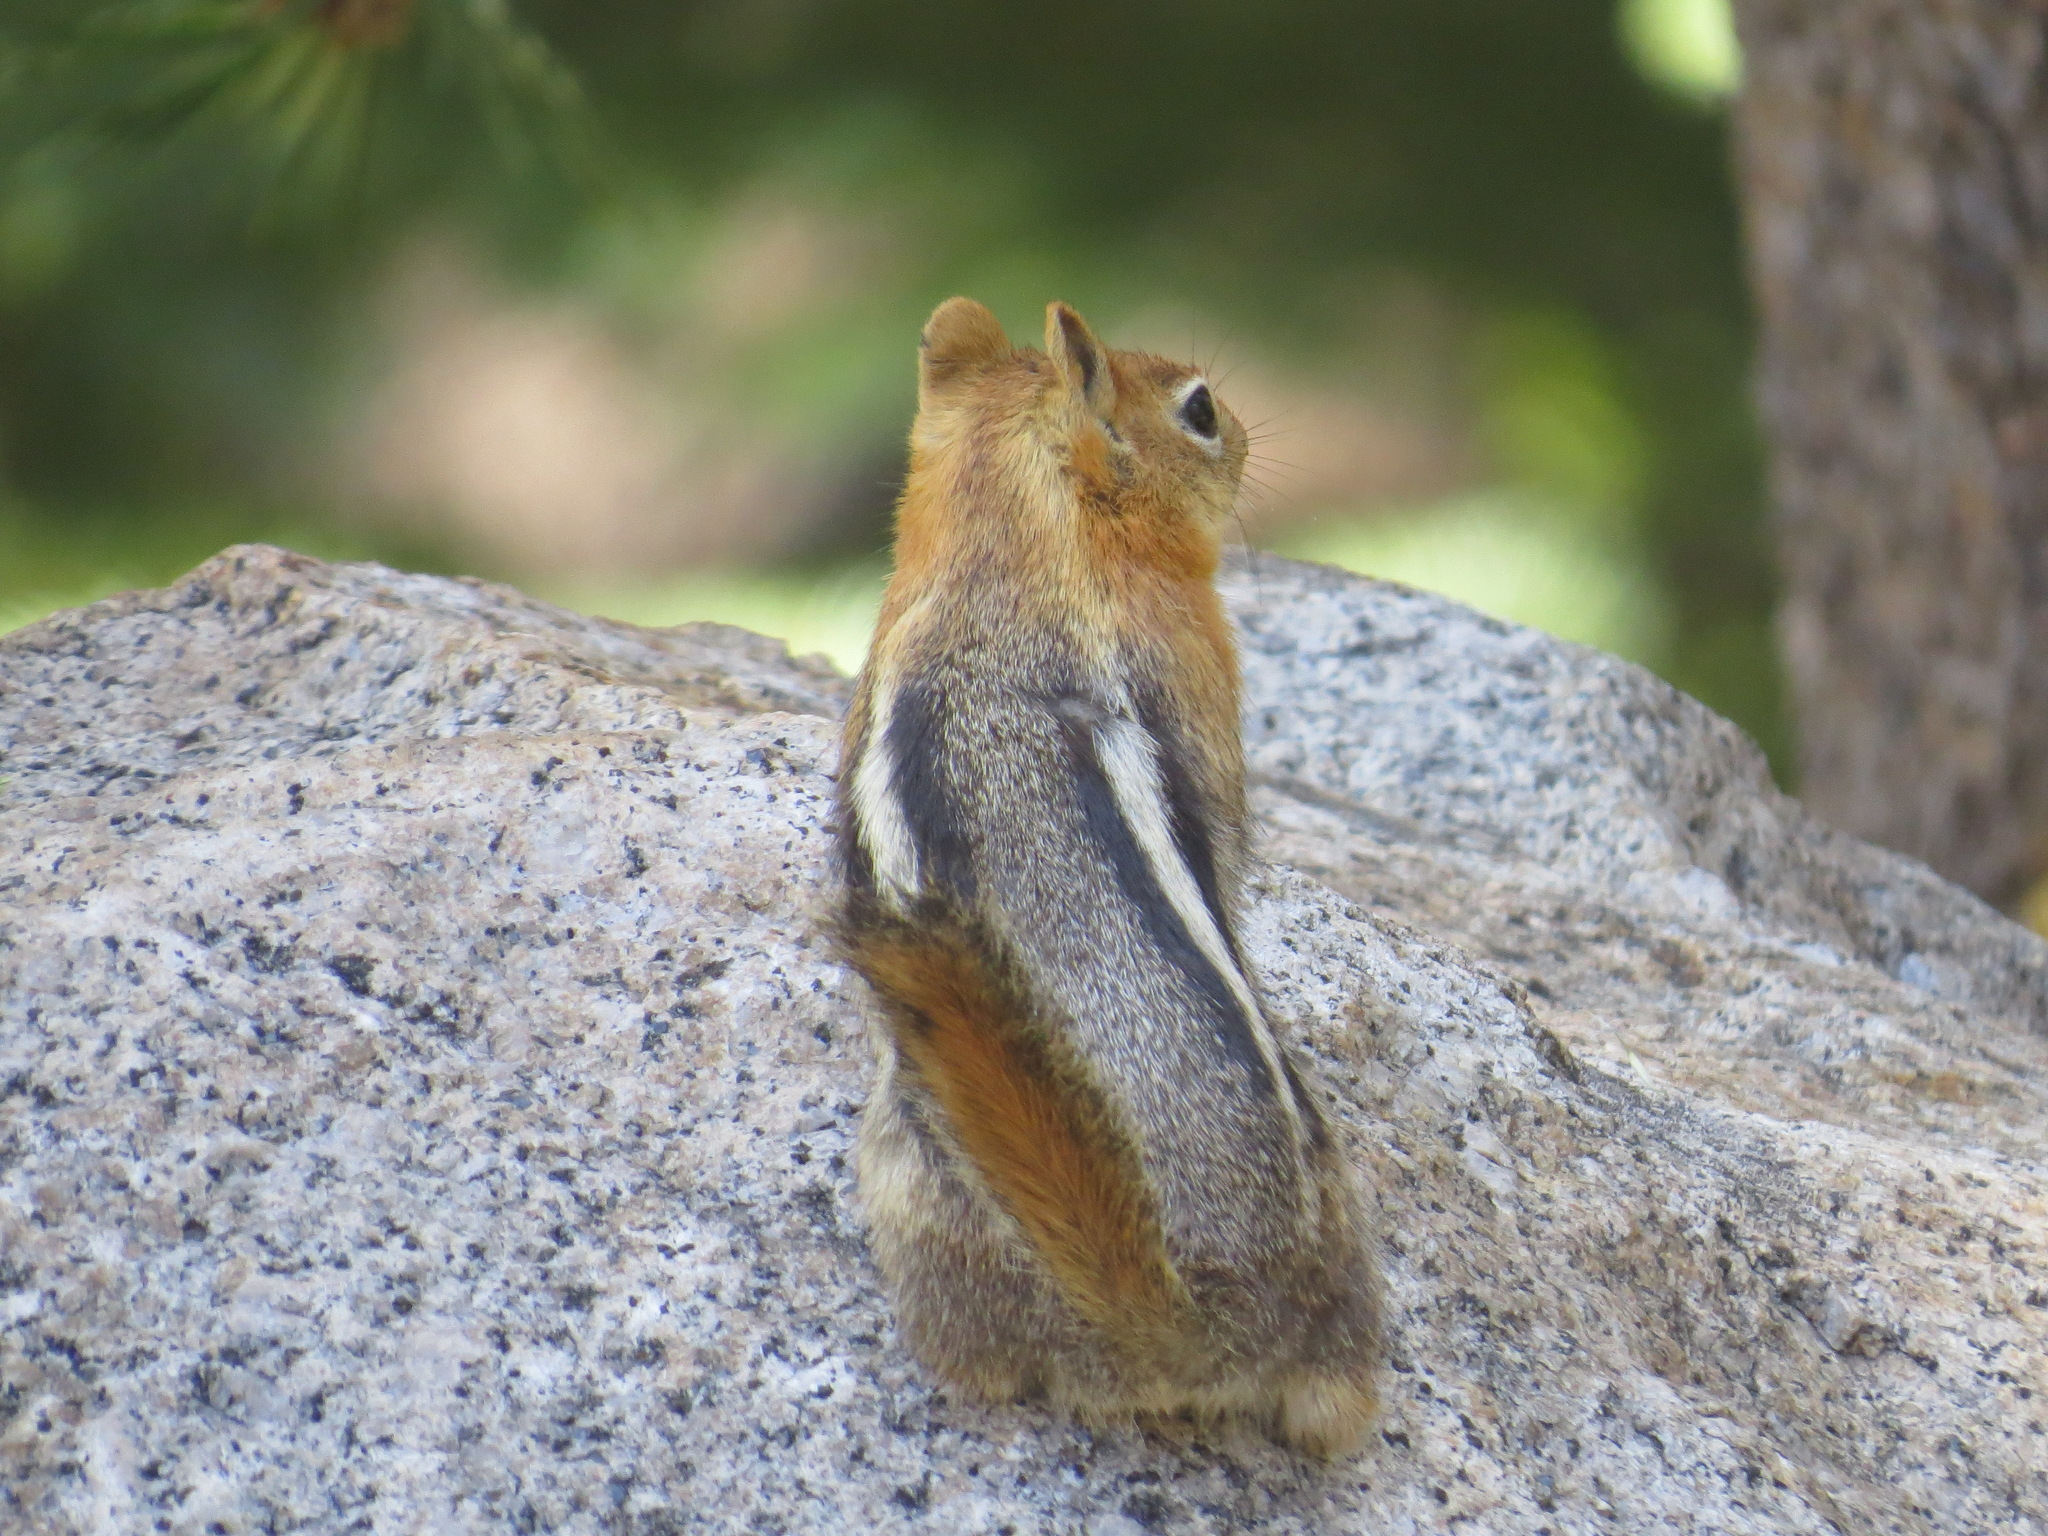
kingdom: Animalia
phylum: Chordata
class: Mammalia
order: Rodentia
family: Sciuridae
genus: Callospermophilus
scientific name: Callospermophilus lateralis
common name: Golden-mantled ground squirrel
